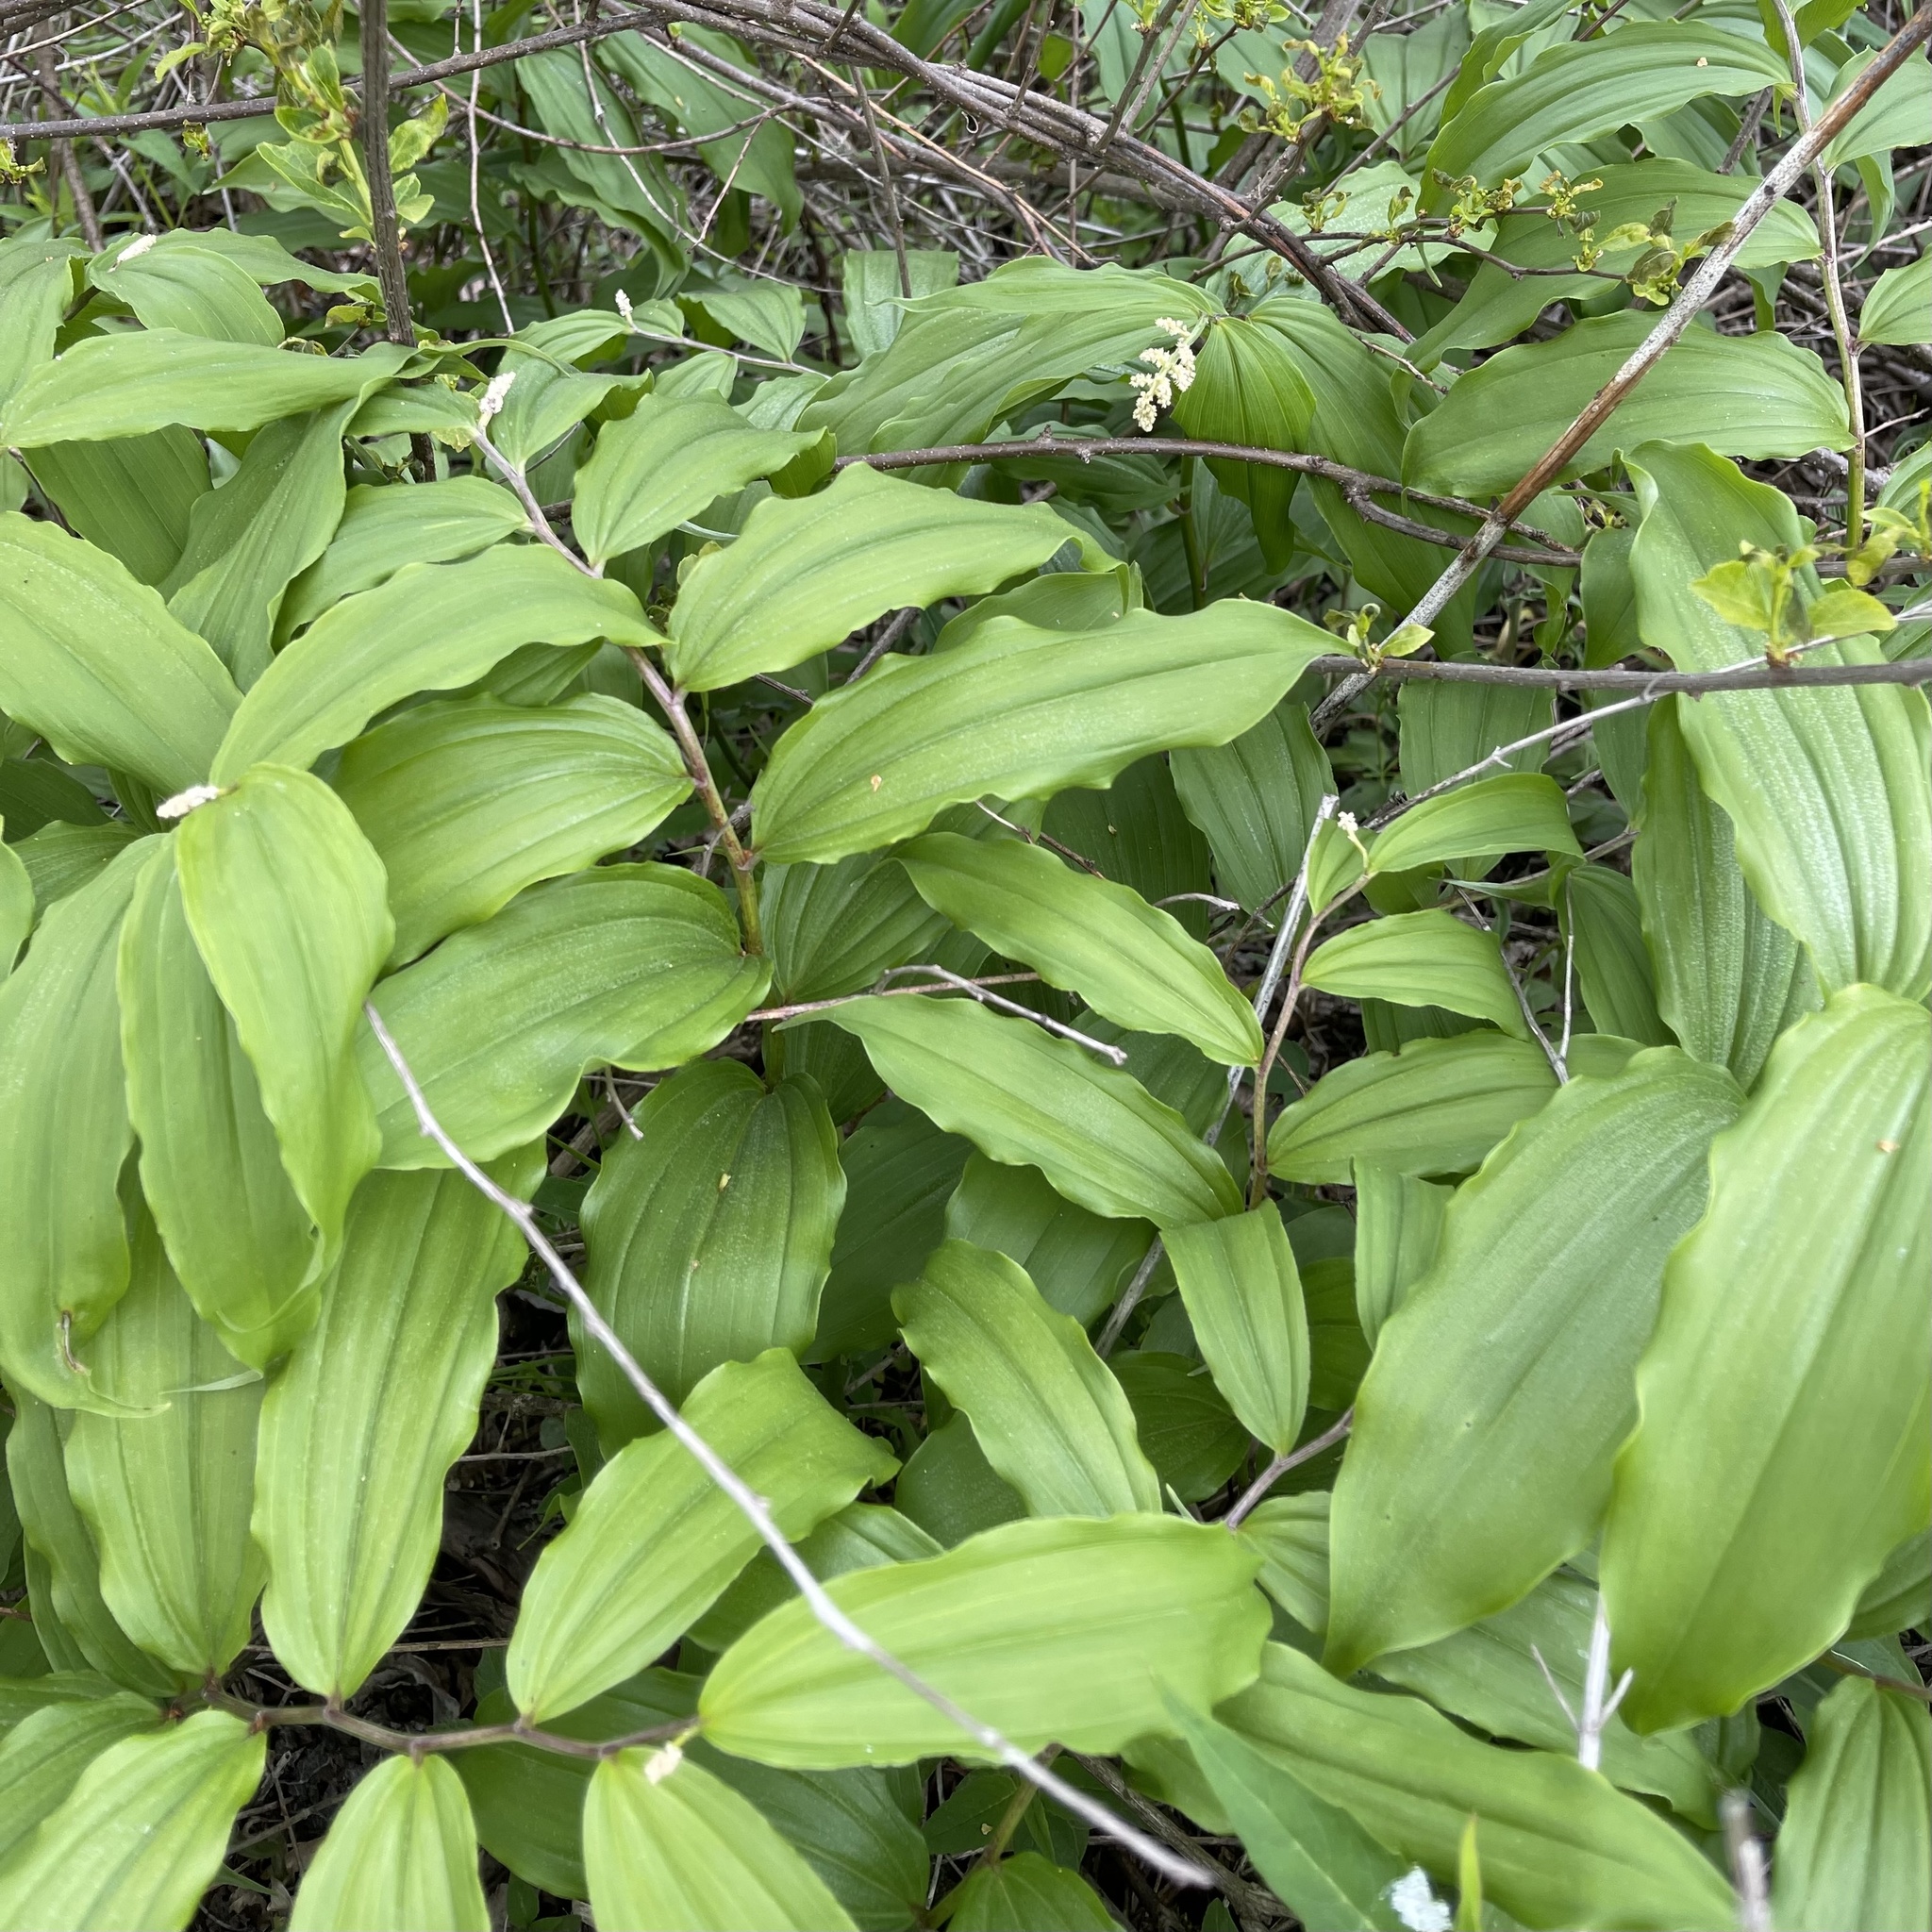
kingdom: Plantae
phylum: Tracheophyta
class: Liliopsida
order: Asparagales
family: Asparagaceae
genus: Maianthemum
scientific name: Maianthemum racemosum
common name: False spikenard
